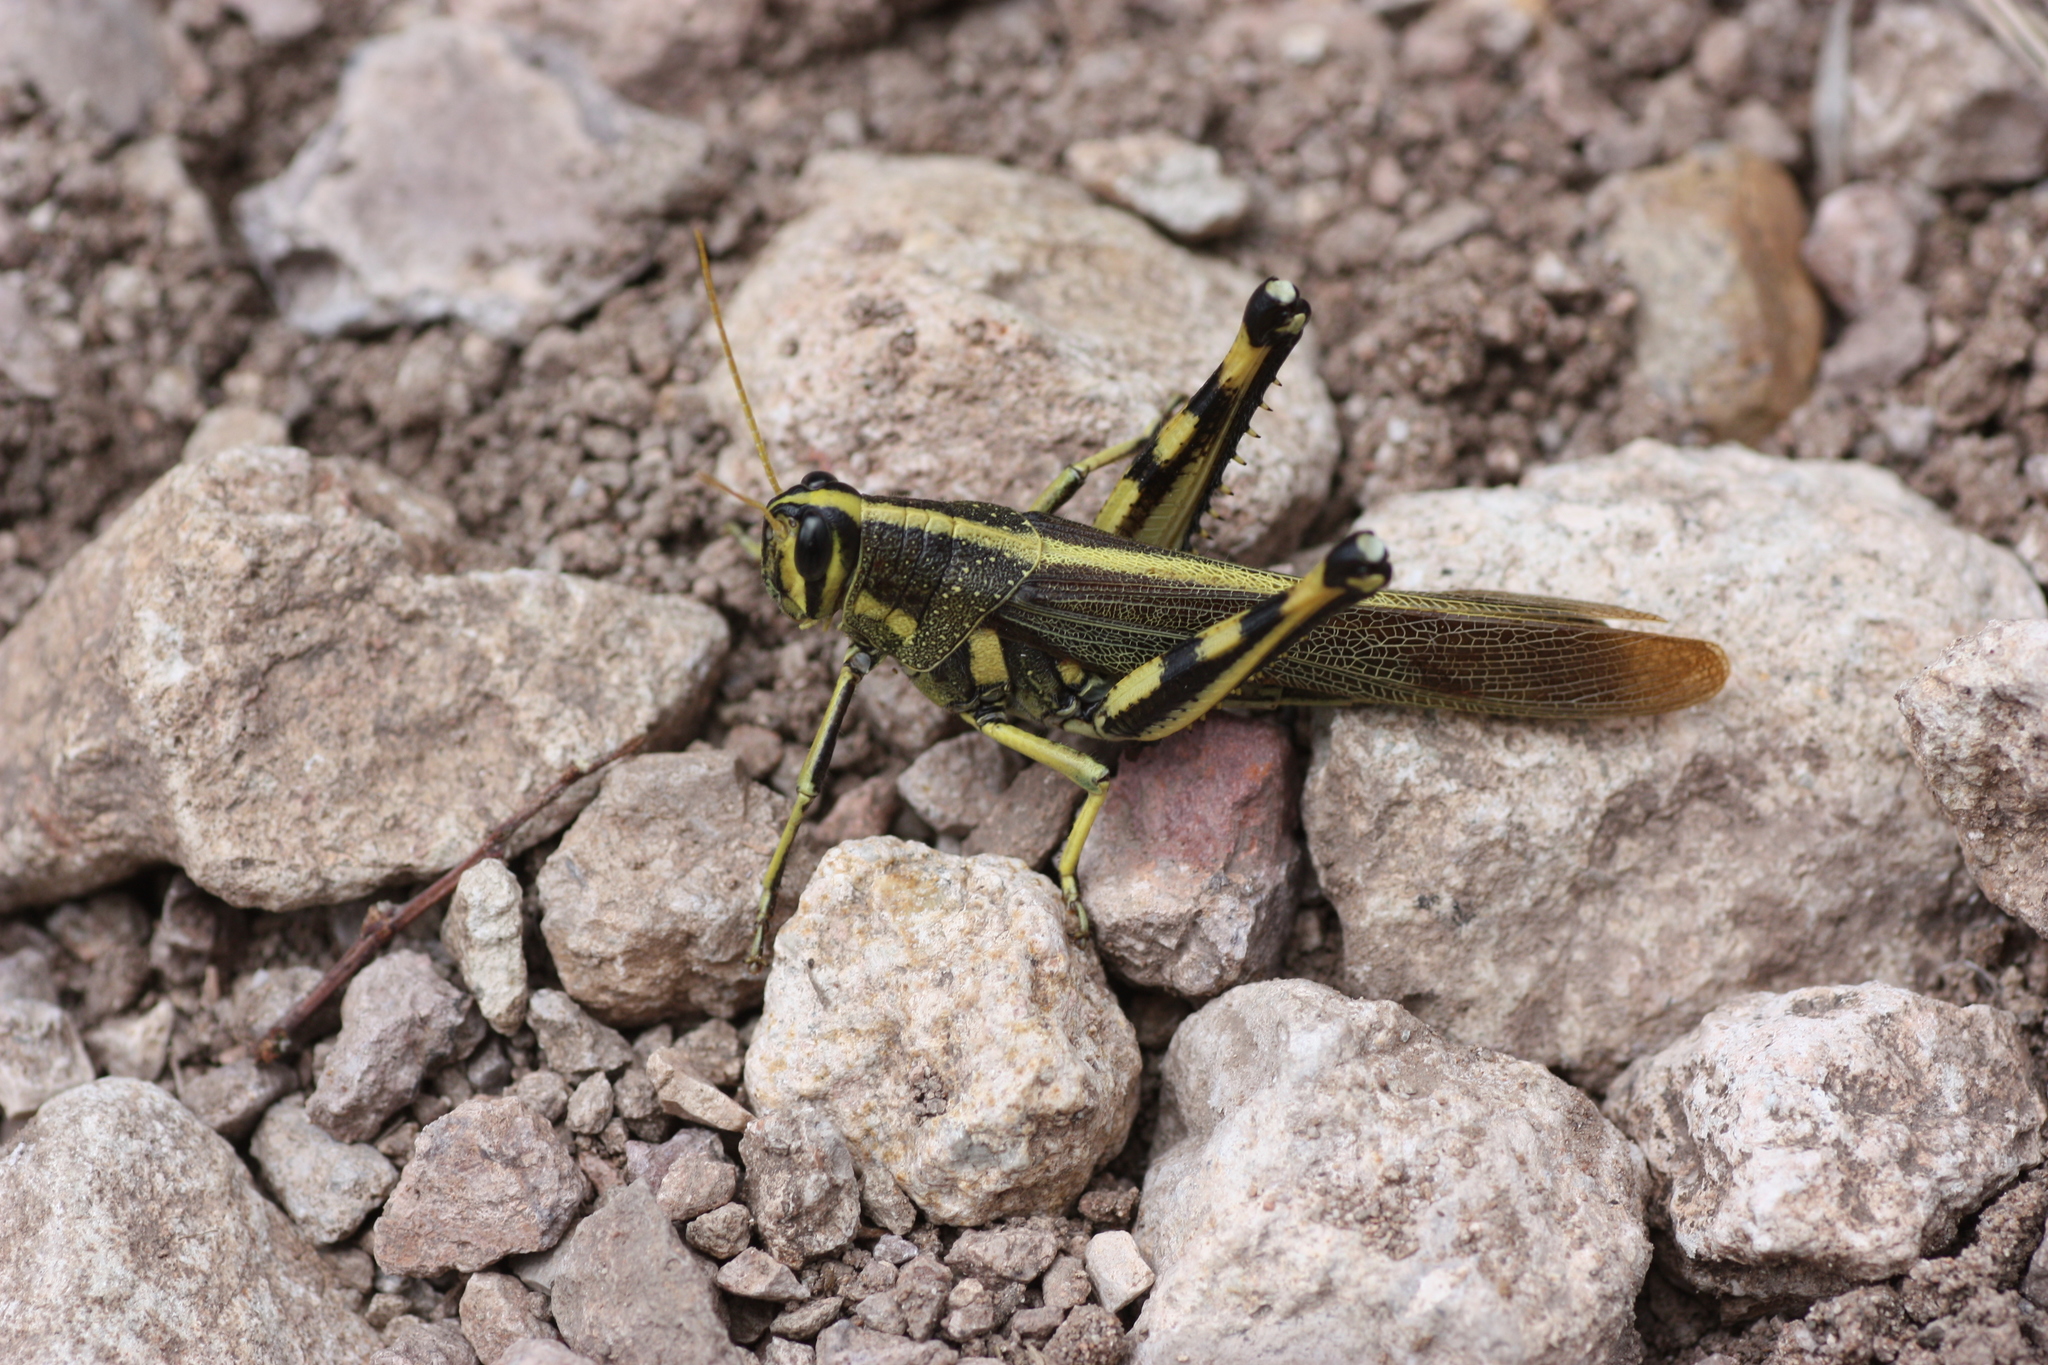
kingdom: Animalia
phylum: Arthropoda
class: Insecta
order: Orthoptera
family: Acrididae
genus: Schistocerca
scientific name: Schistocerca albolineata
